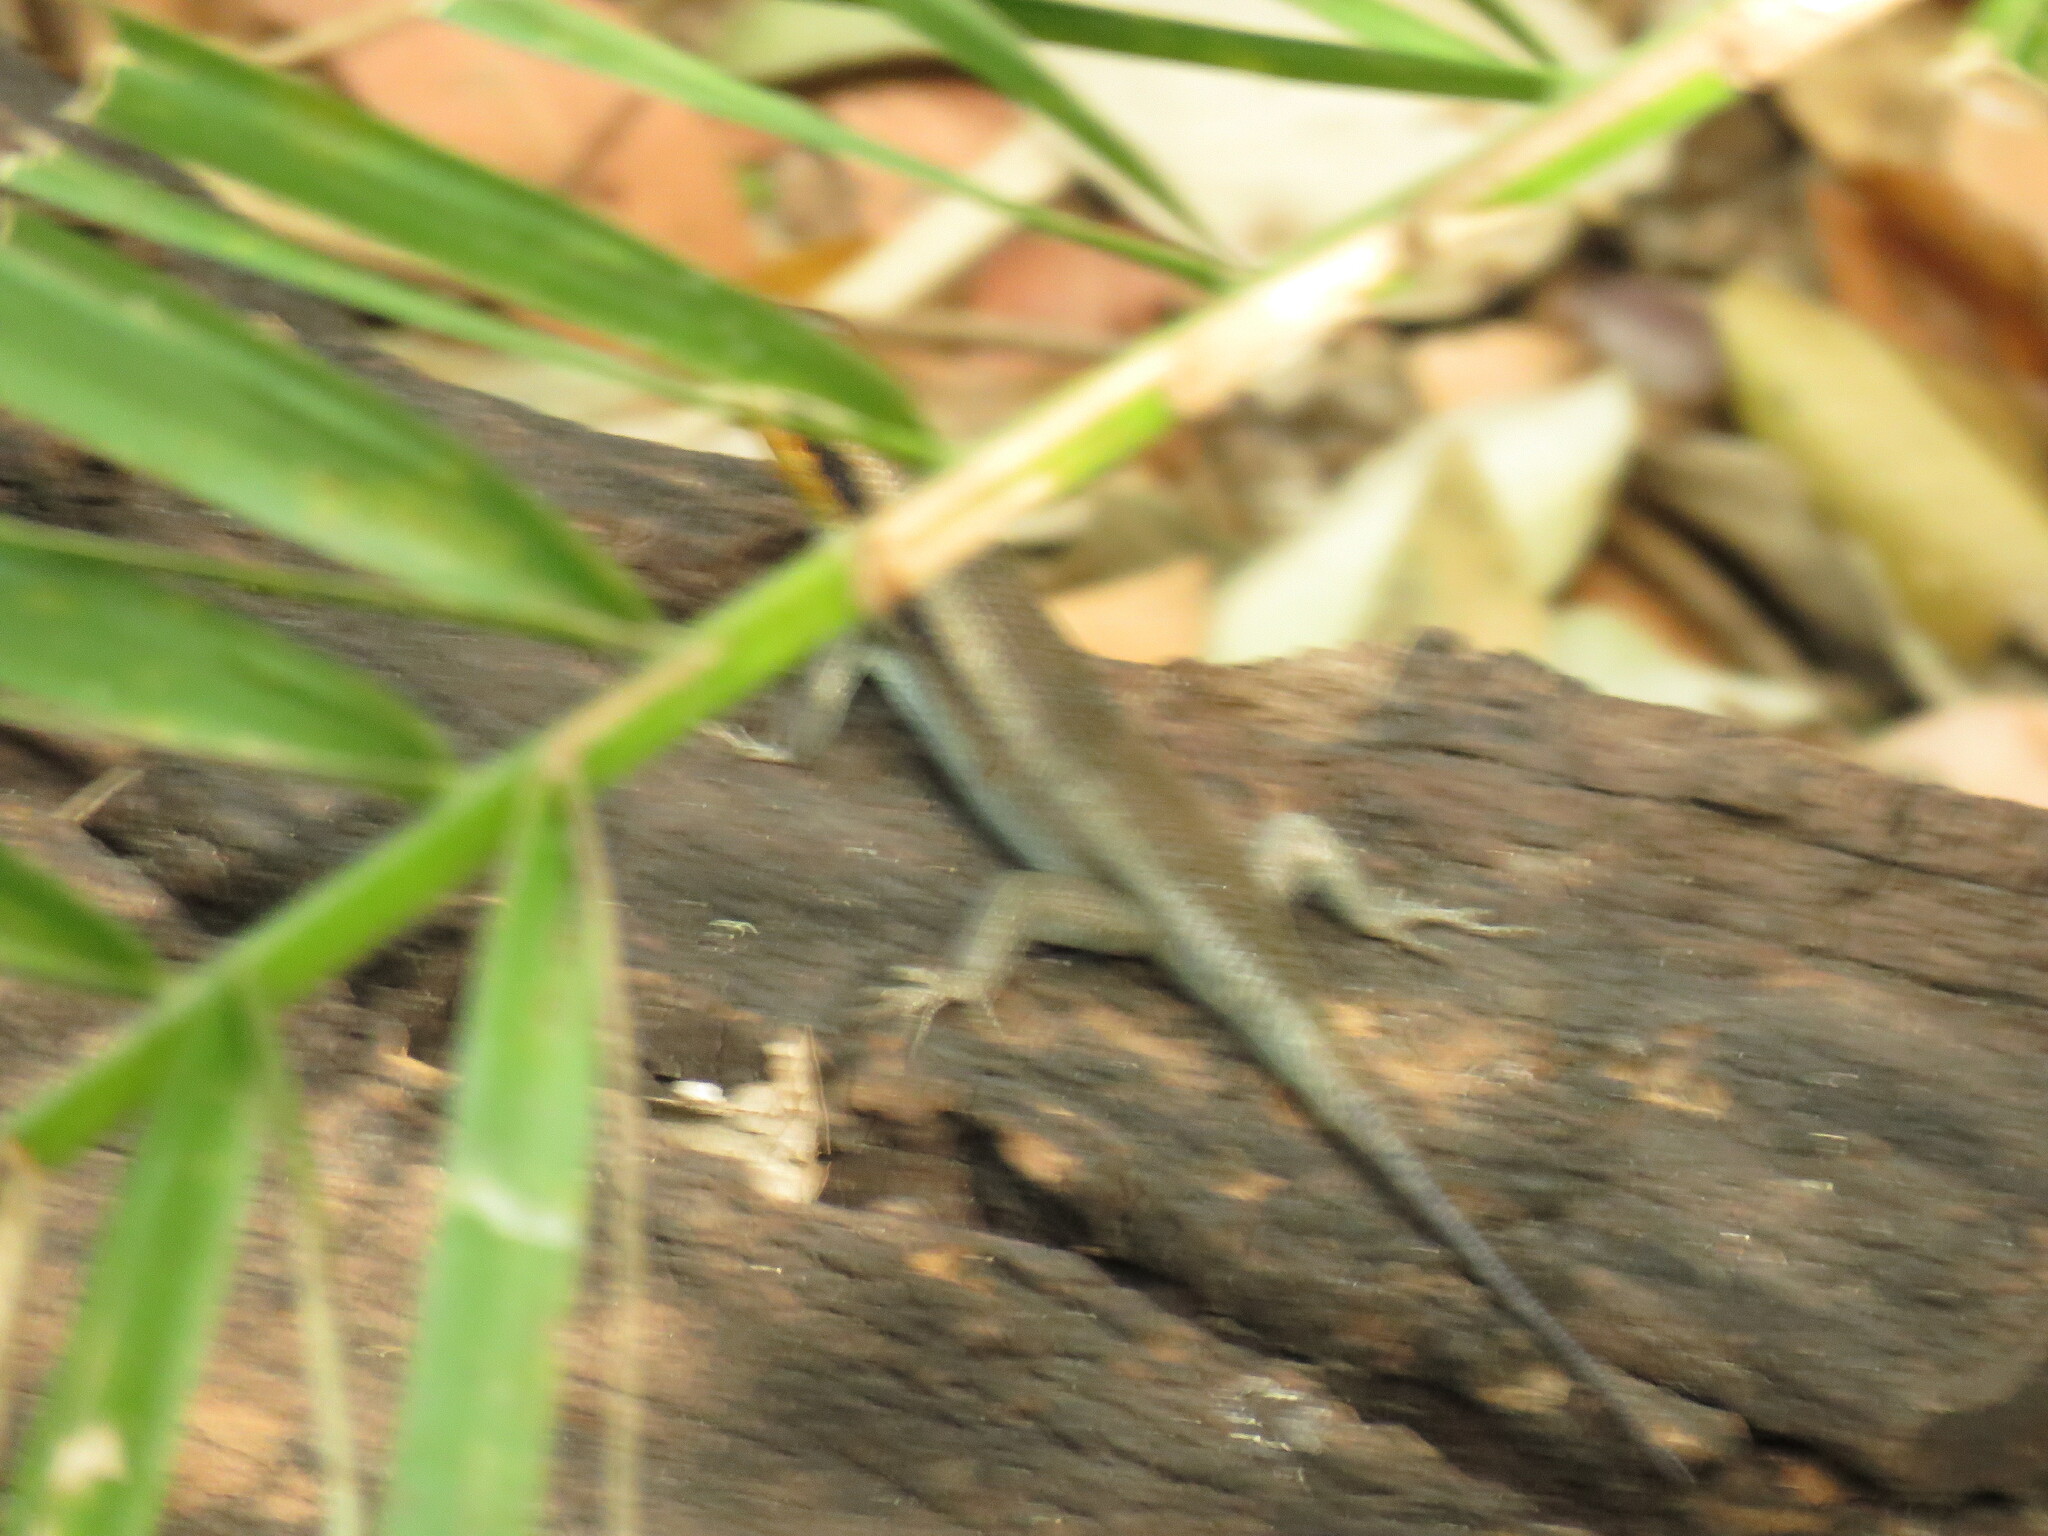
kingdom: Animalia
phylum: Chordata
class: Squamata
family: Scincidae
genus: Trachylepis
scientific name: Trachylepis wahlbergii
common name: Wahlberg’s striped skink
